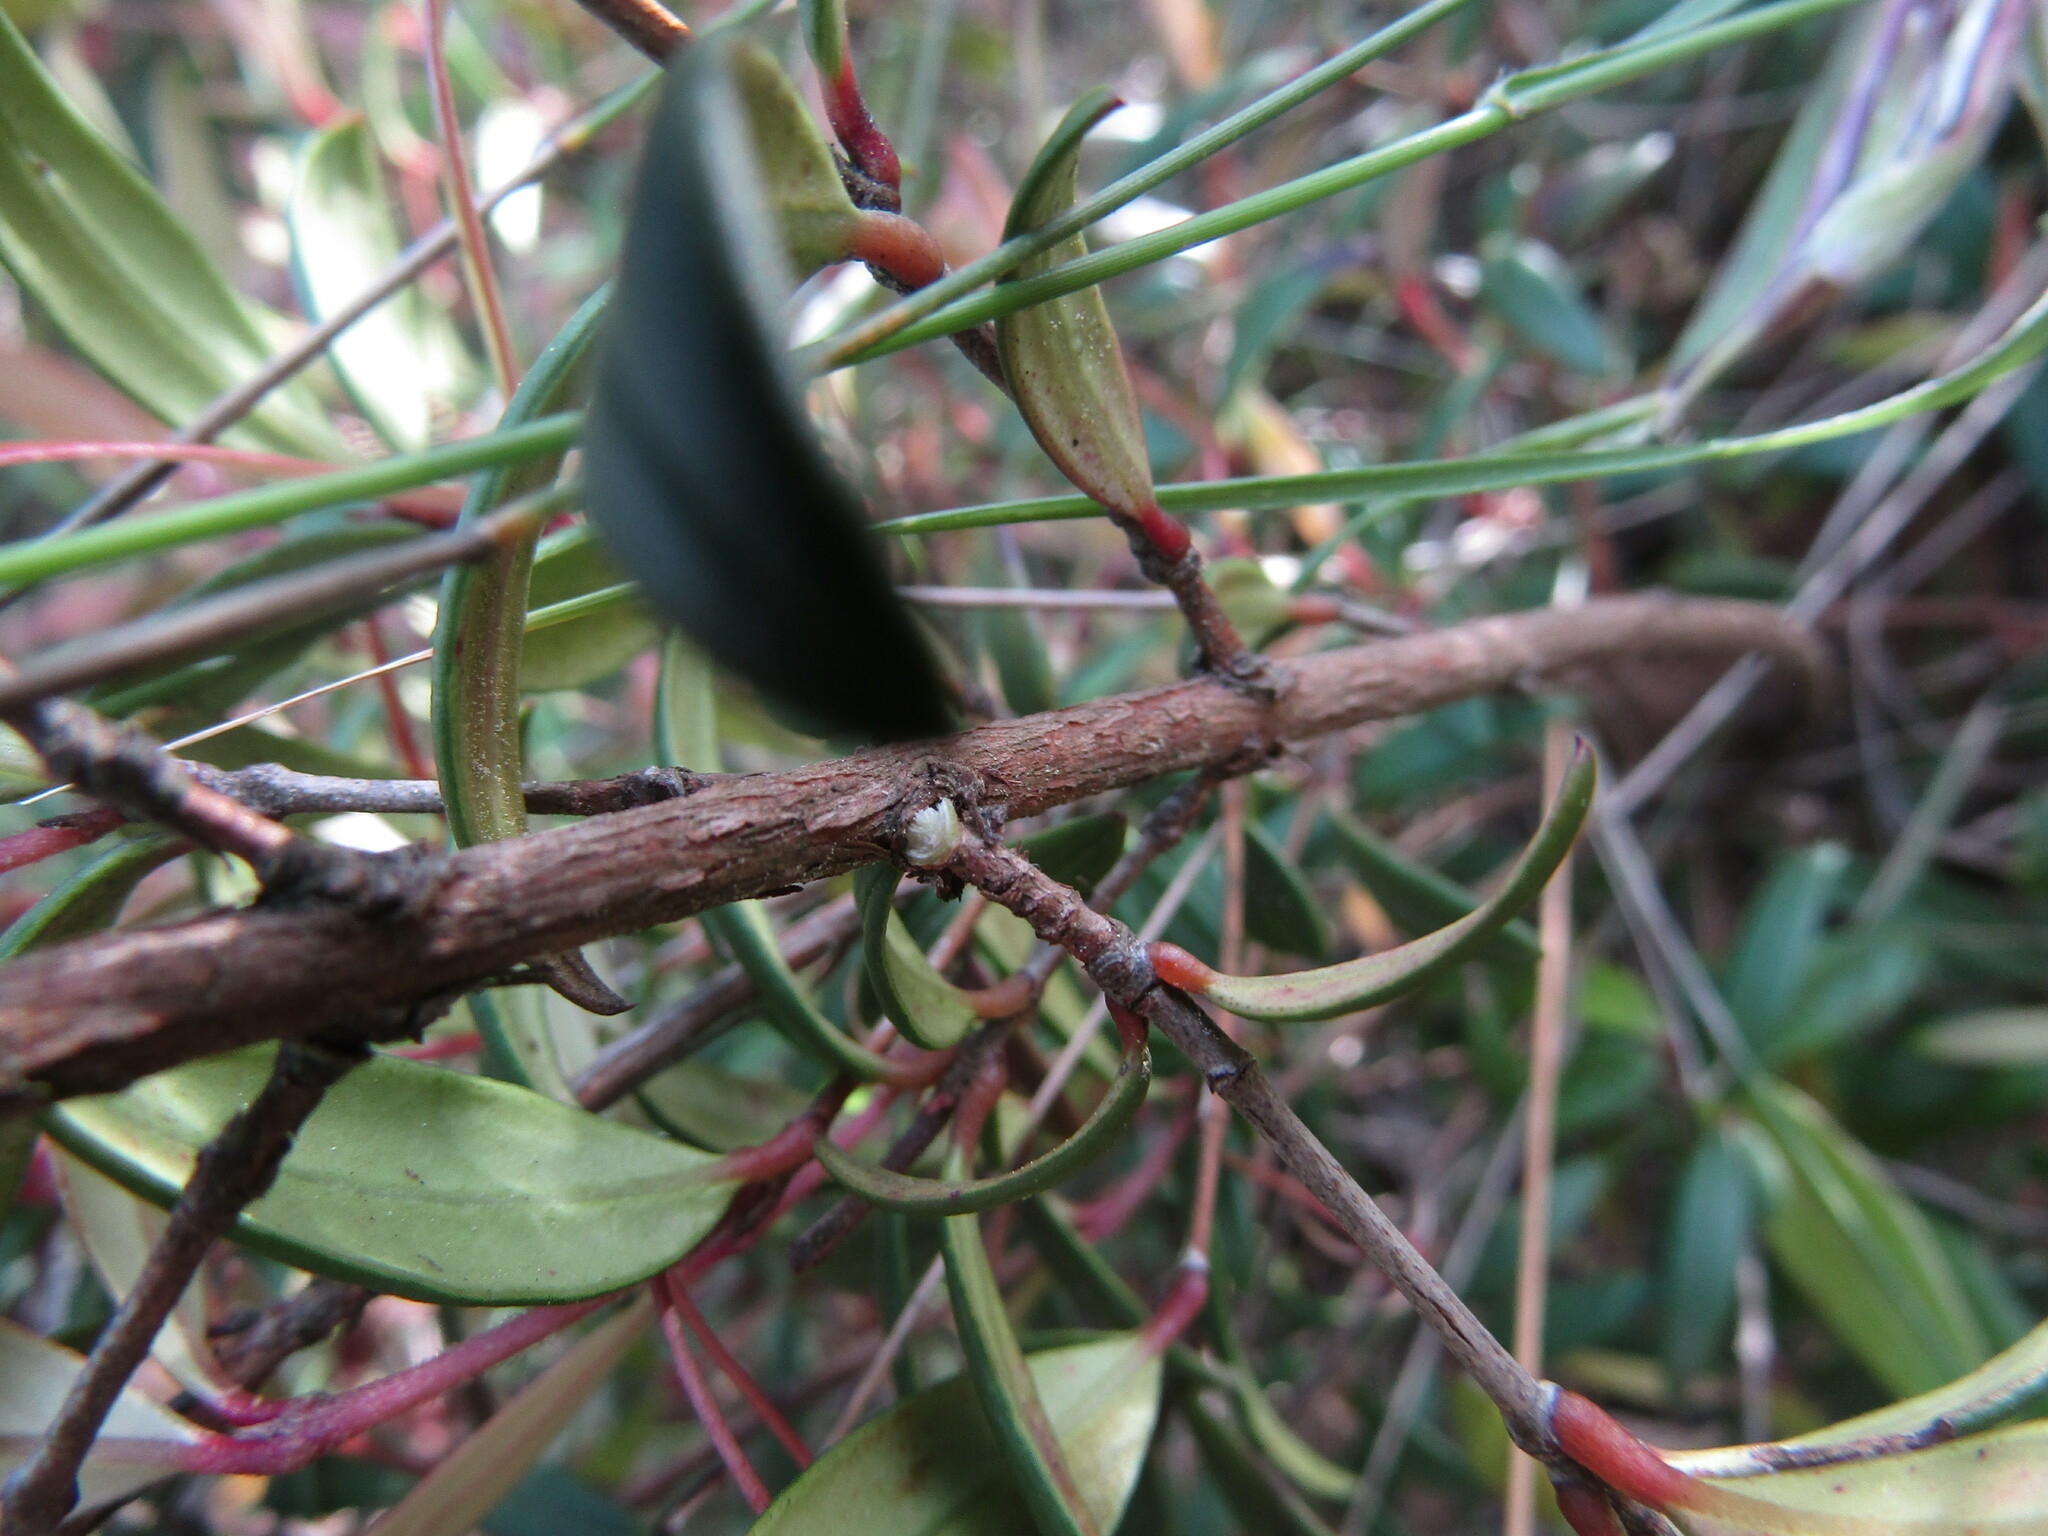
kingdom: Plantae
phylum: Tracheophyta
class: Magnoliopsida
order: Myrtales
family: Myrtaceae
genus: Ugni
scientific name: Ugni molinae
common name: Chilean-guava
